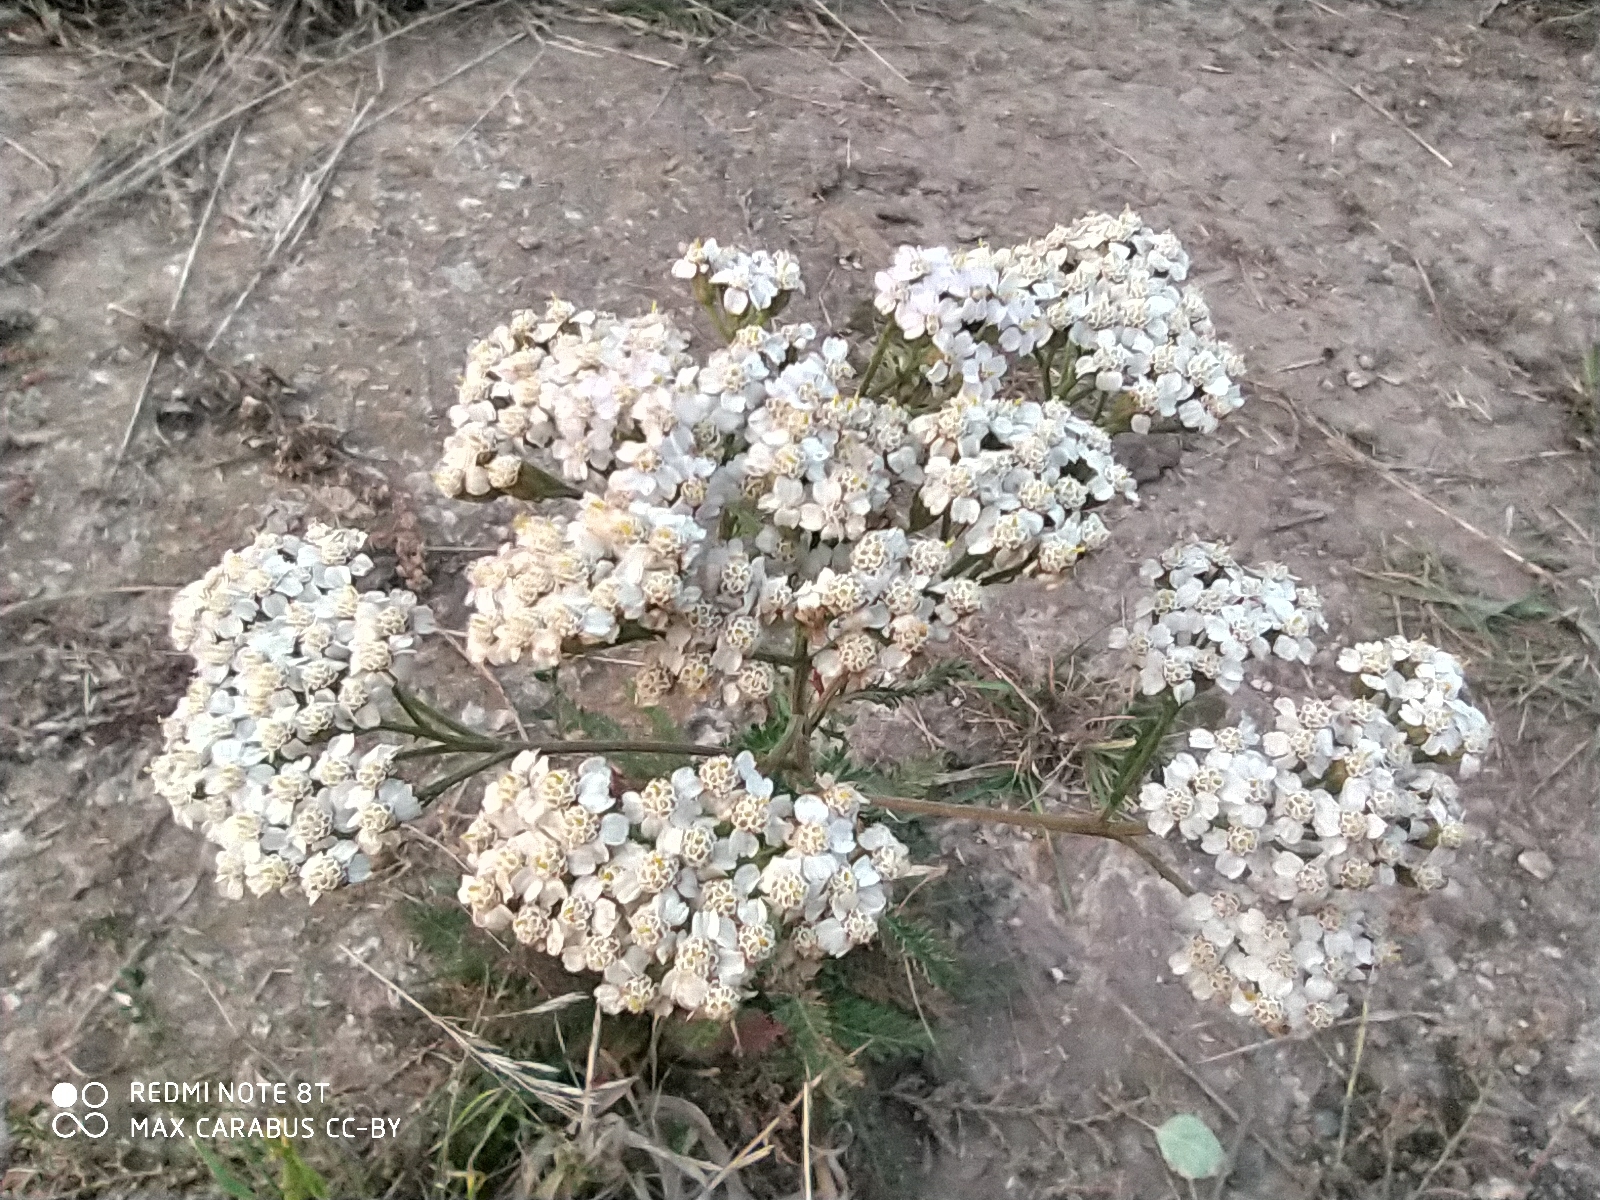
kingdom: Plantae
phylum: Tracheophyta
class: Magnoliopsida
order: Asterales
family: Asteraceae
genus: Achillea
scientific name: Achillea millefolium
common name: Yarrow
